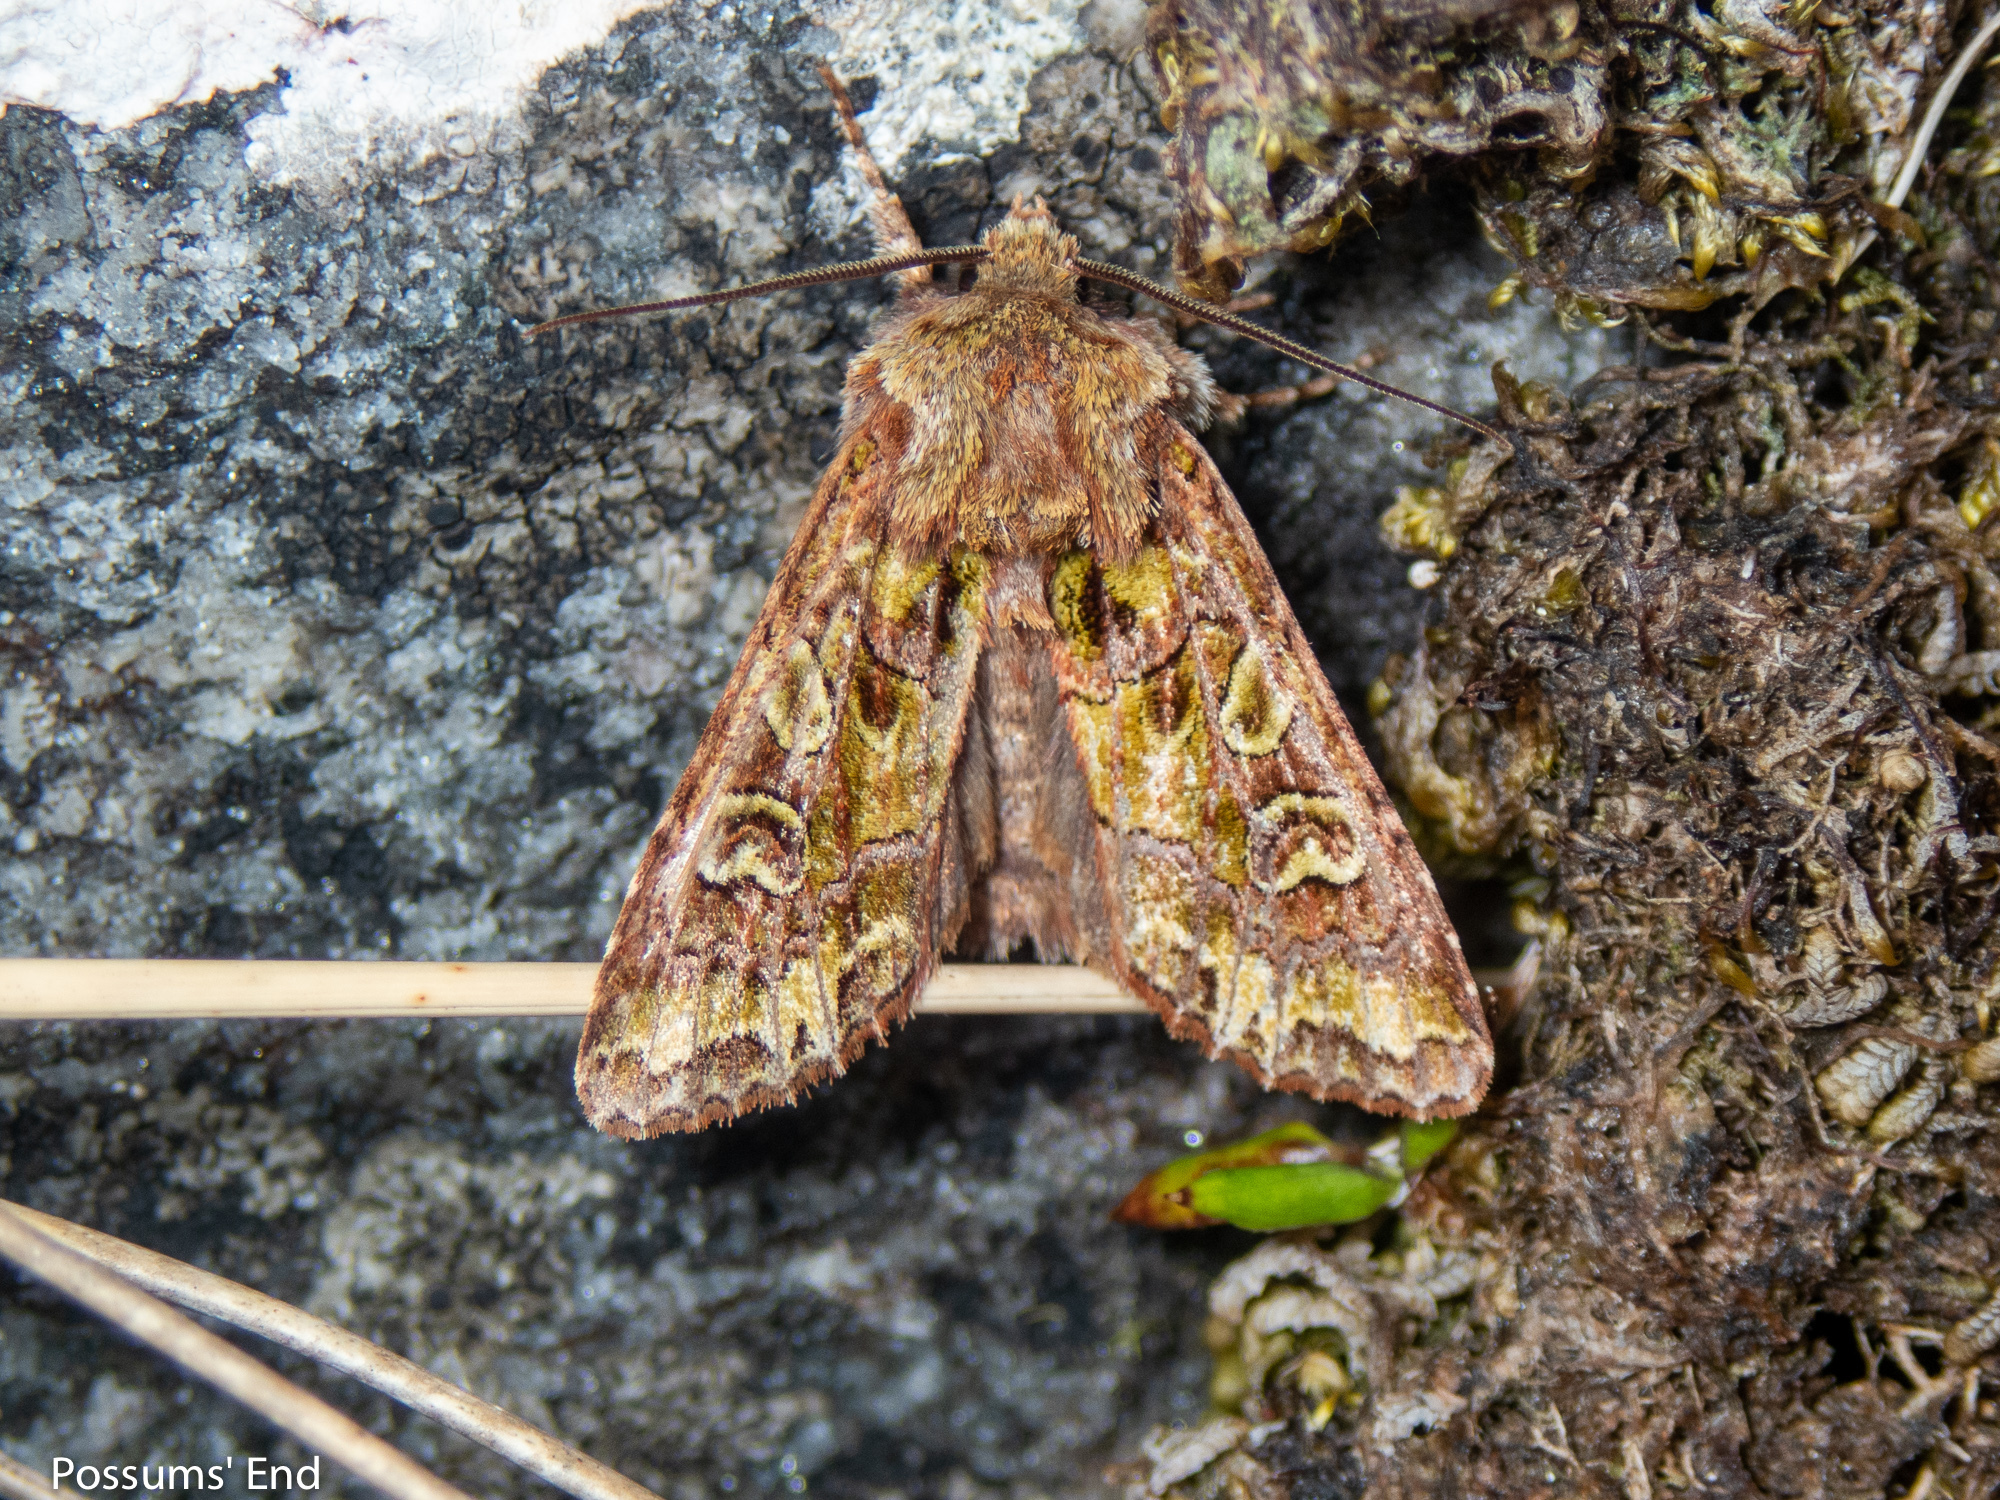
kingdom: Animalia
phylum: Arthropoda
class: Insecta
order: Lepidoptera
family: Noctuidae
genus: Ichneutica
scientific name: Ichneutica chlorodonta
